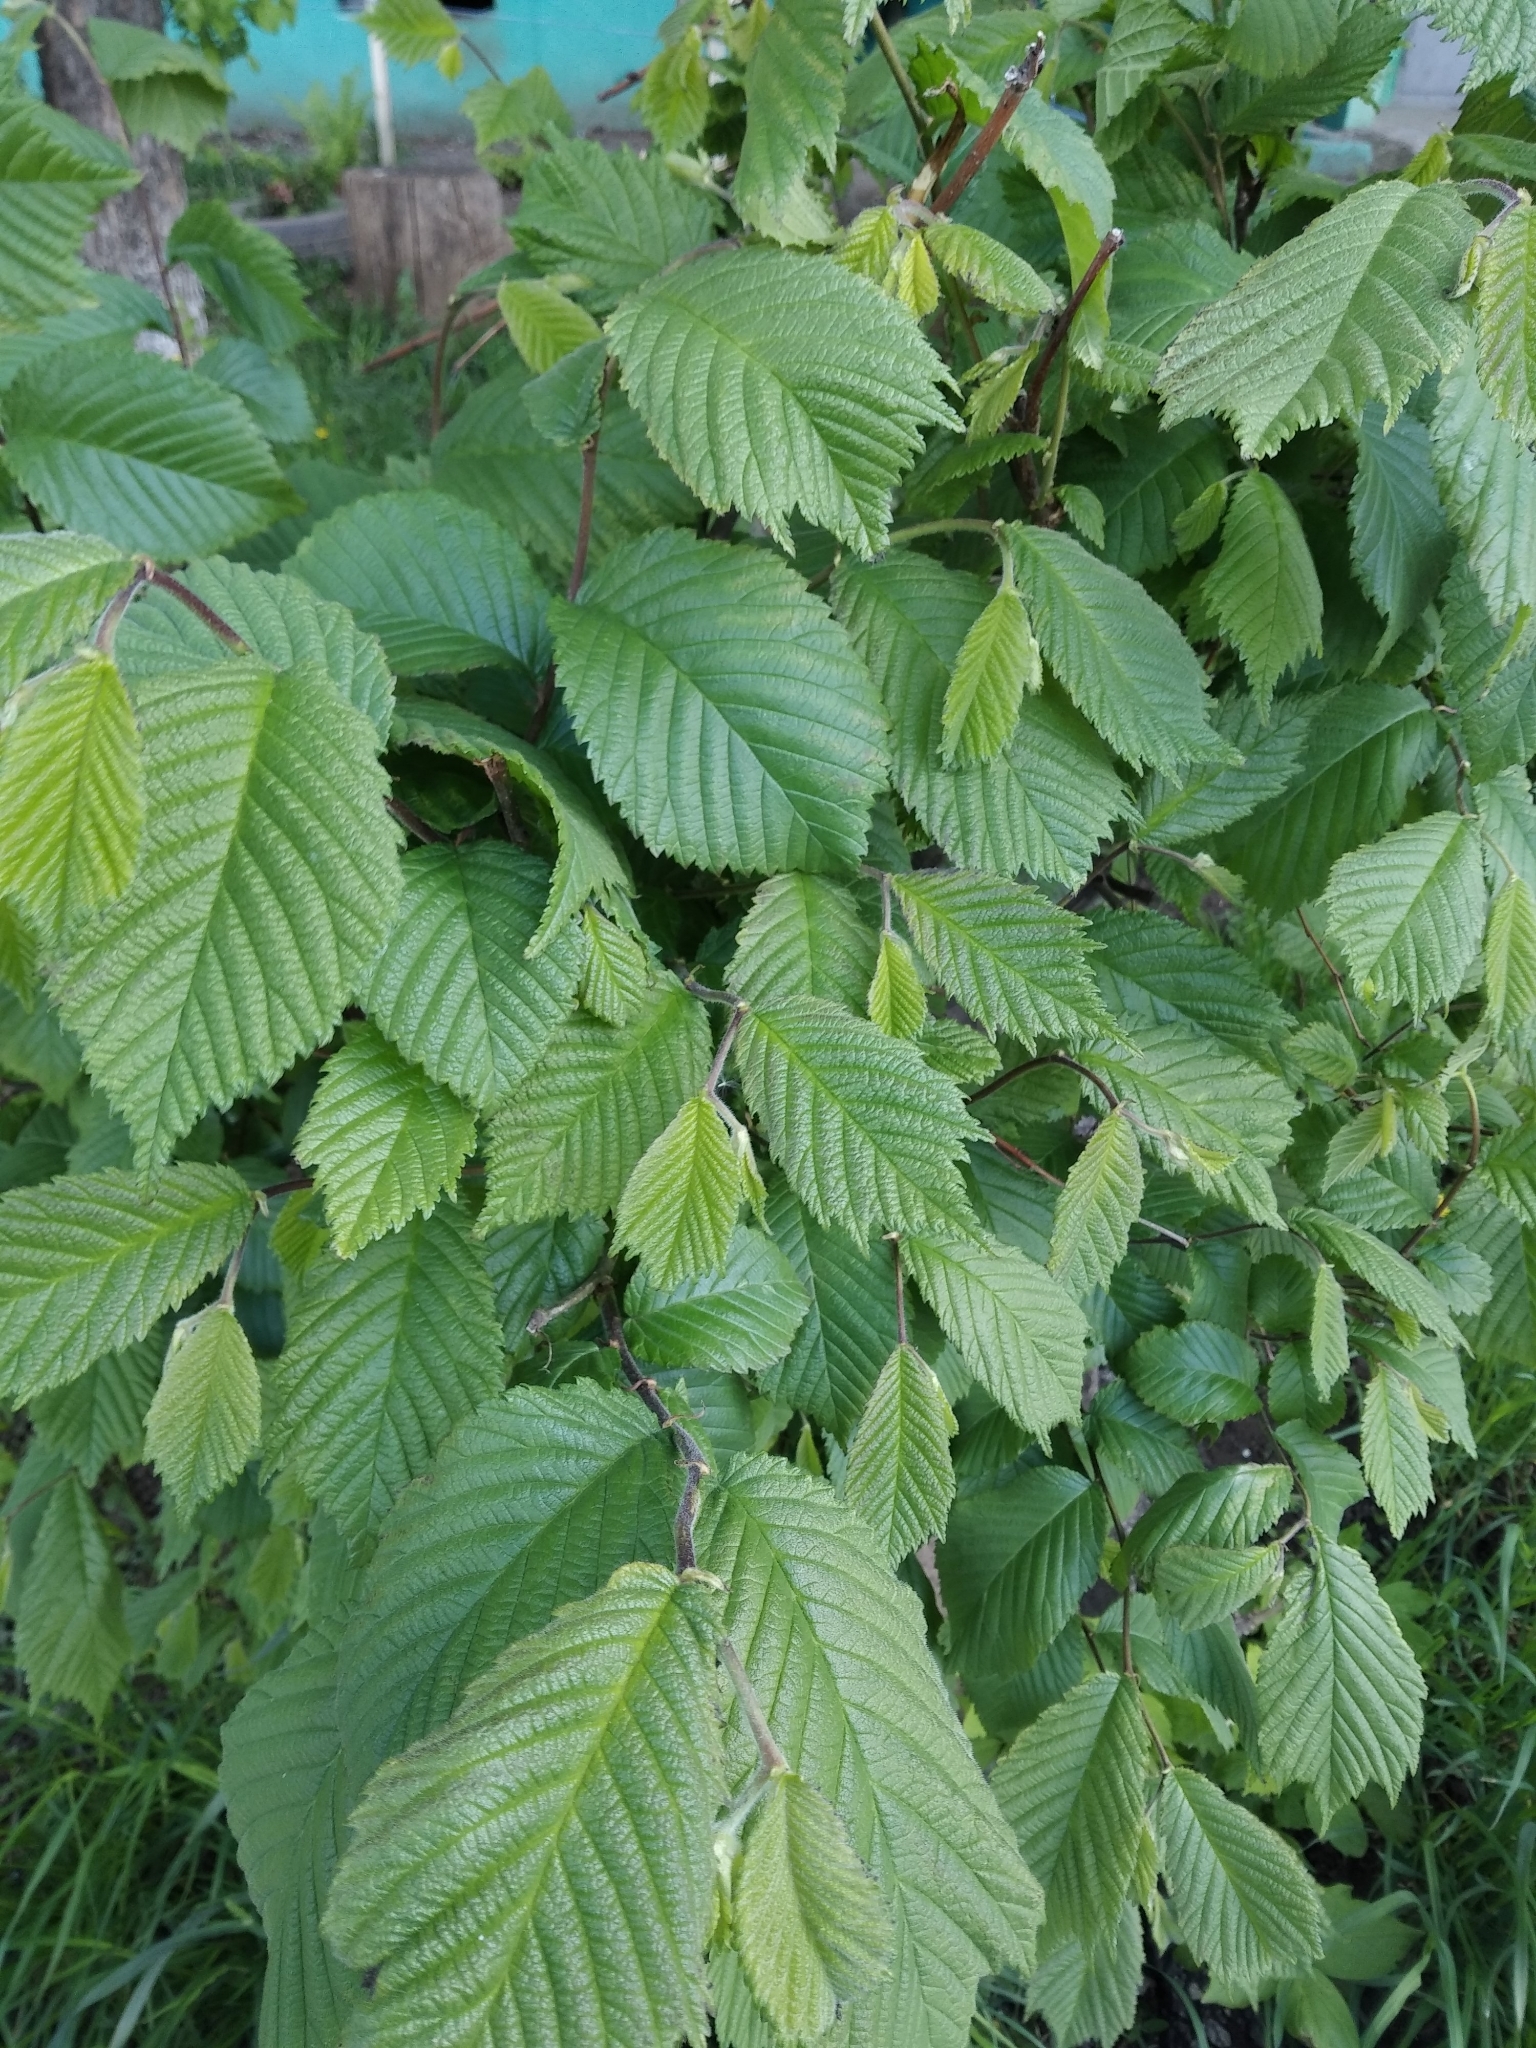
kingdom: Plantae
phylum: Tracheophyta
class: Magnoliopsida
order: Rosales
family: Ulmaceae
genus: Ulmus
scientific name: Ulmus glabra
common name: Wych elm
